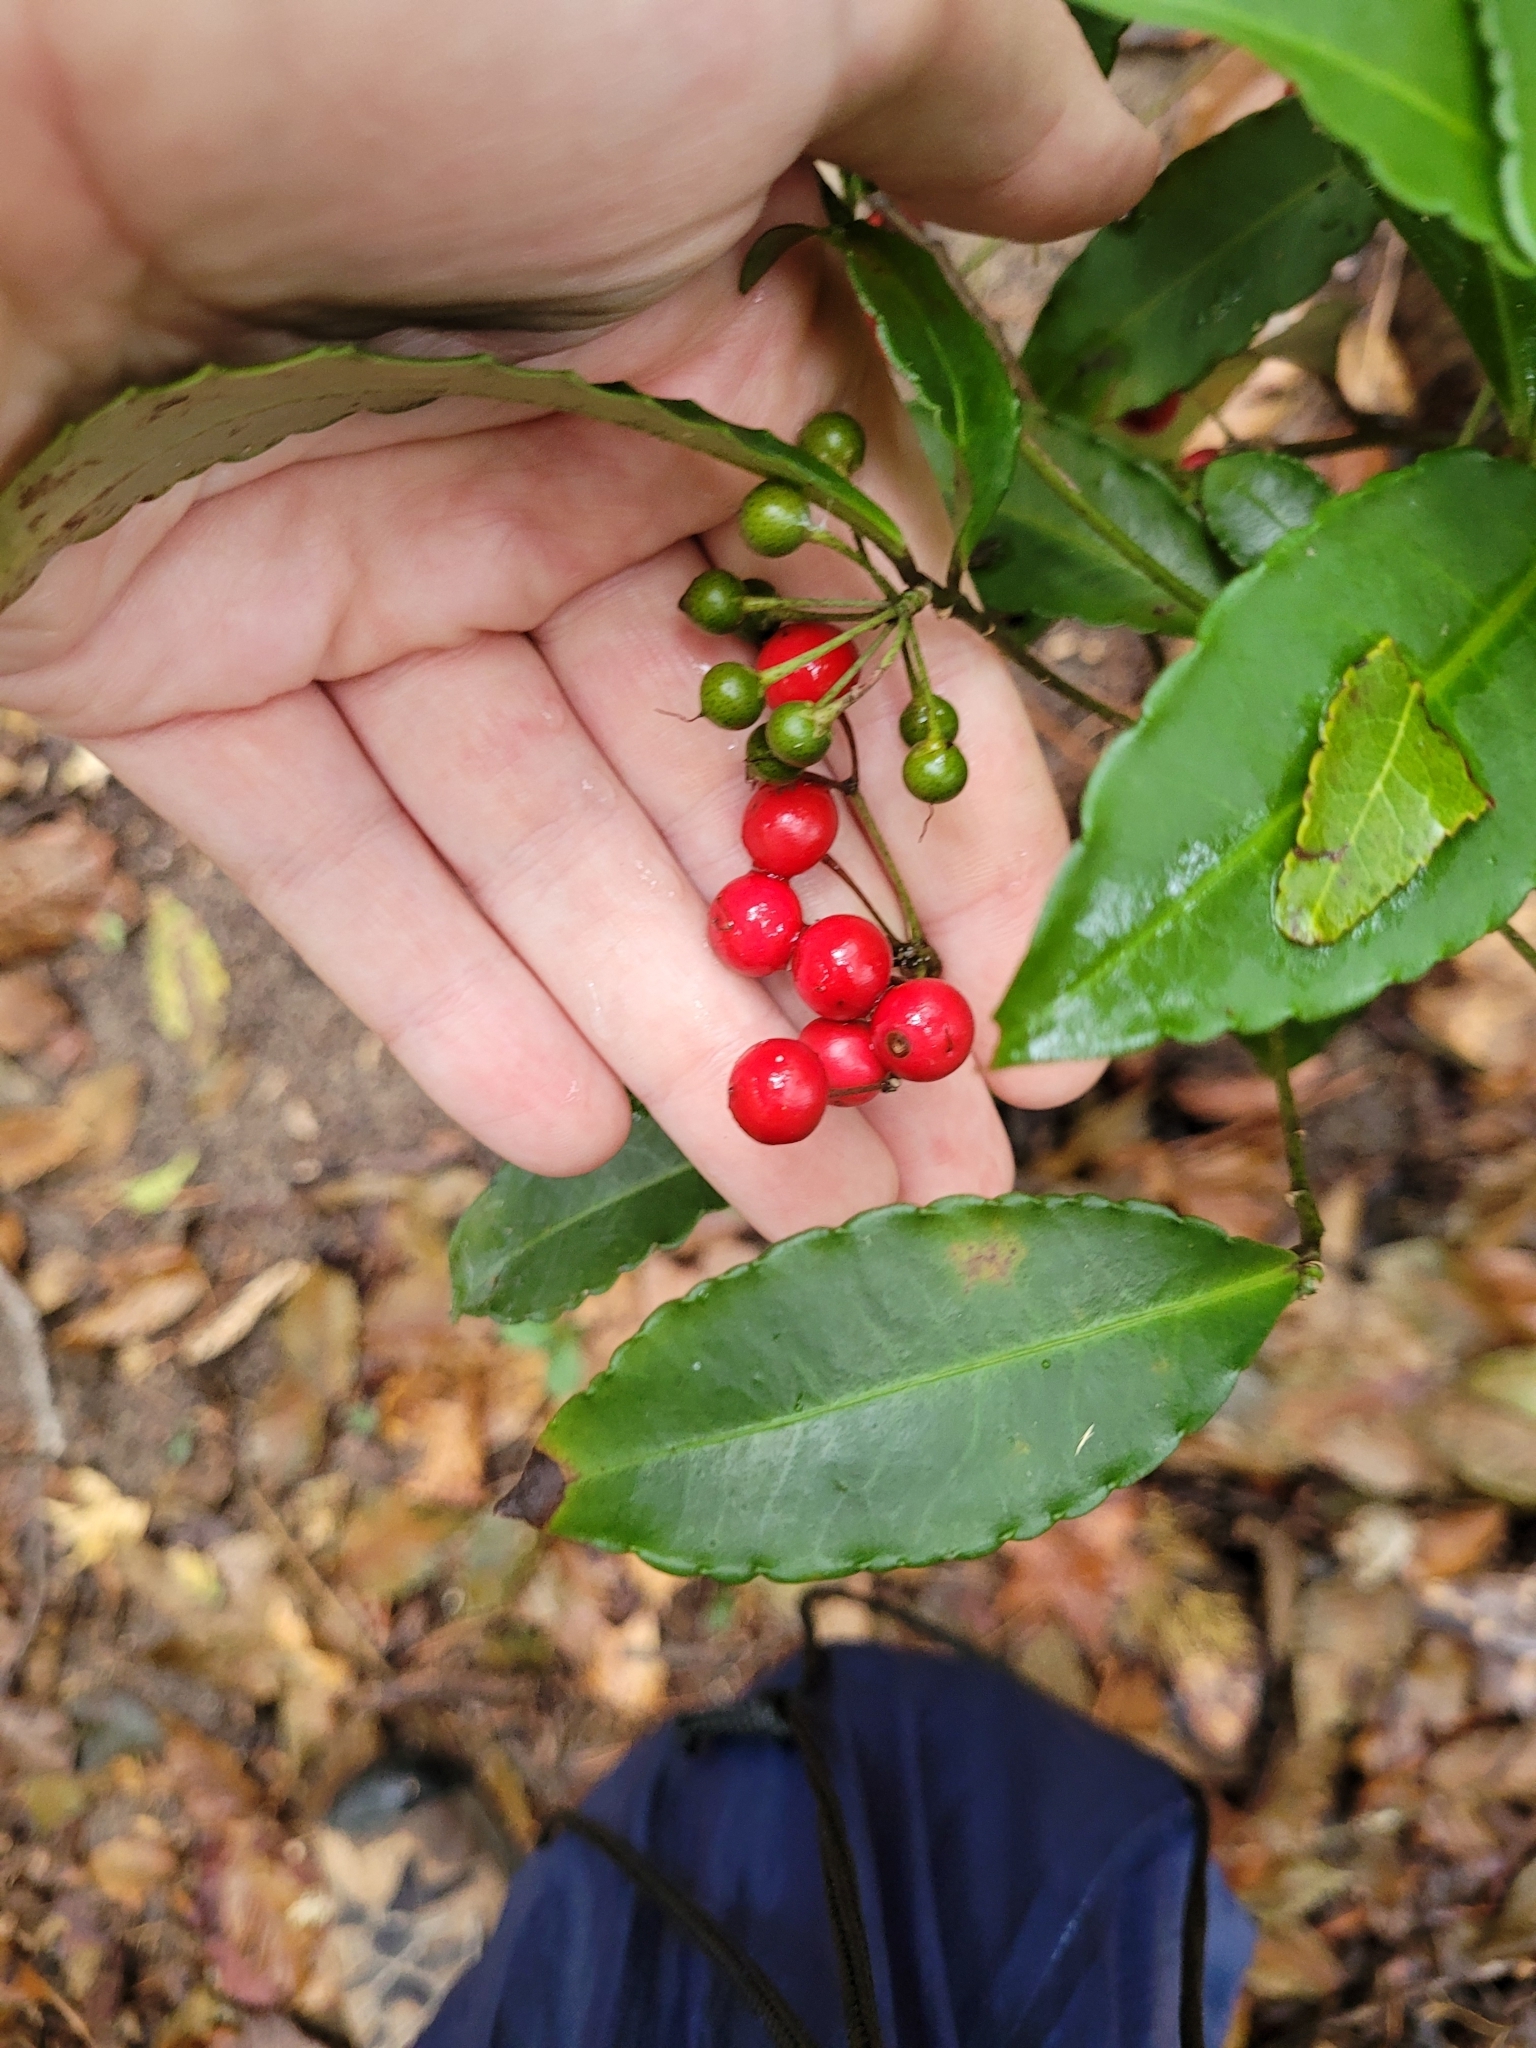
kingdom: Plantae
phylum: Tracheophyta
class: Magnoliopsida
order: Ericales
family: Primulaceae
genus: Ardisia
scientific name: Ardisia crenata
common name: Hen's eyes
